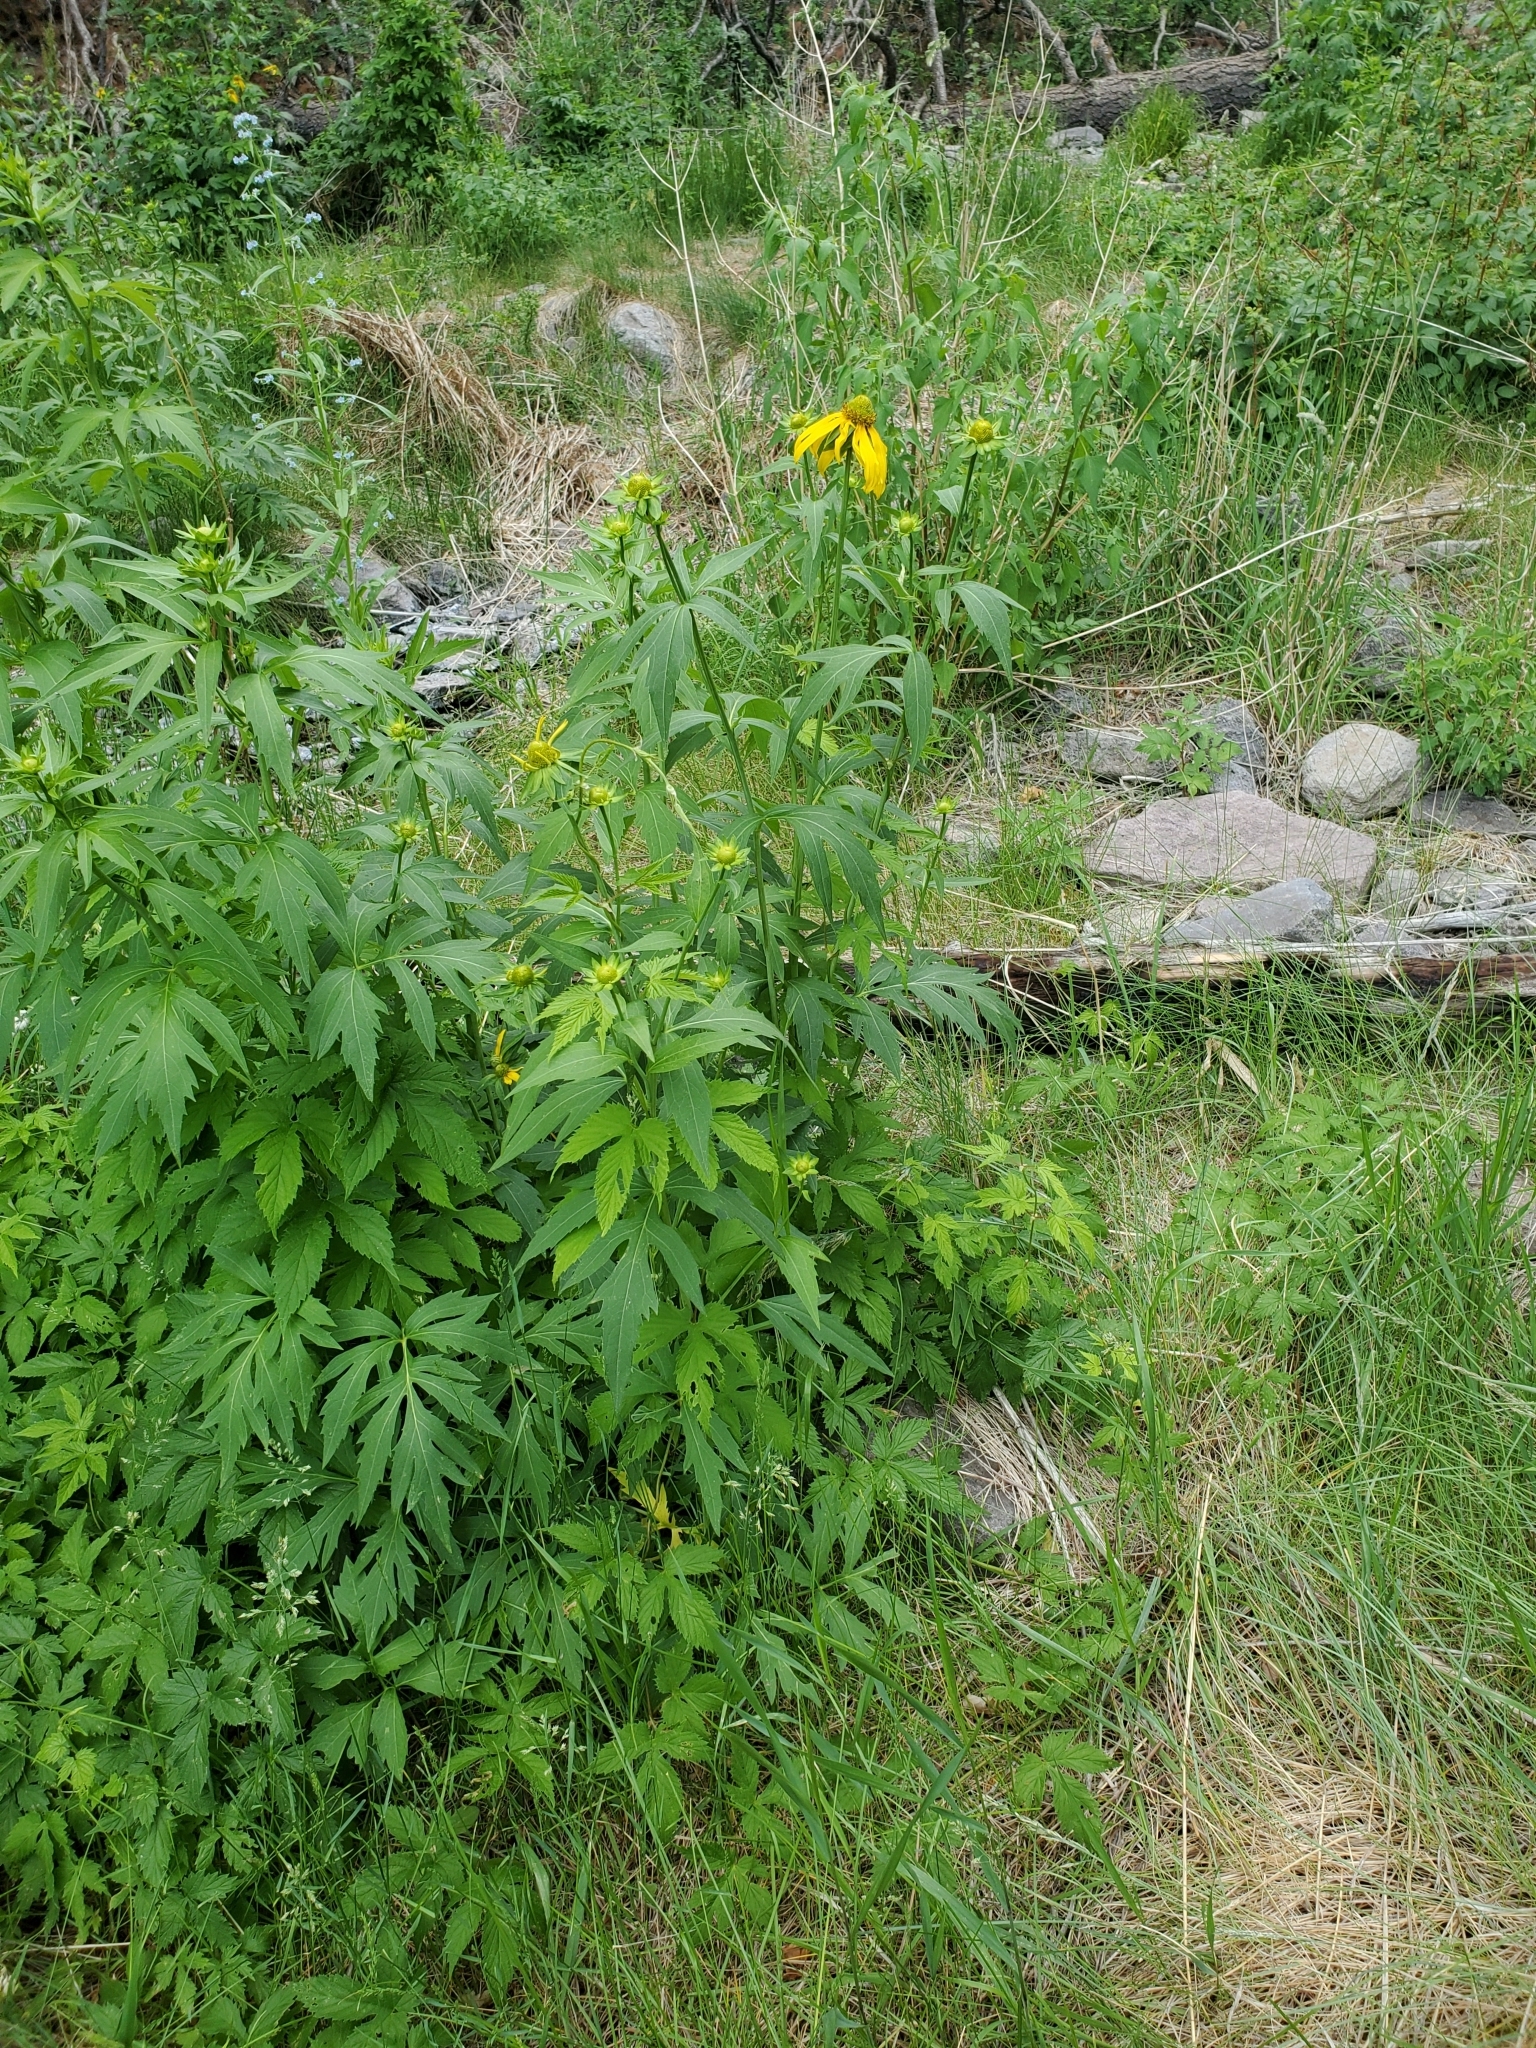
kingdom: Plantae
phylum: Tracheophyta
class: Magnoliopsida
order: Asterales
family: Asteraceae
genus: Rudbeckia
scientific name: Rudbeckia laciniata
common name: Coneflower
